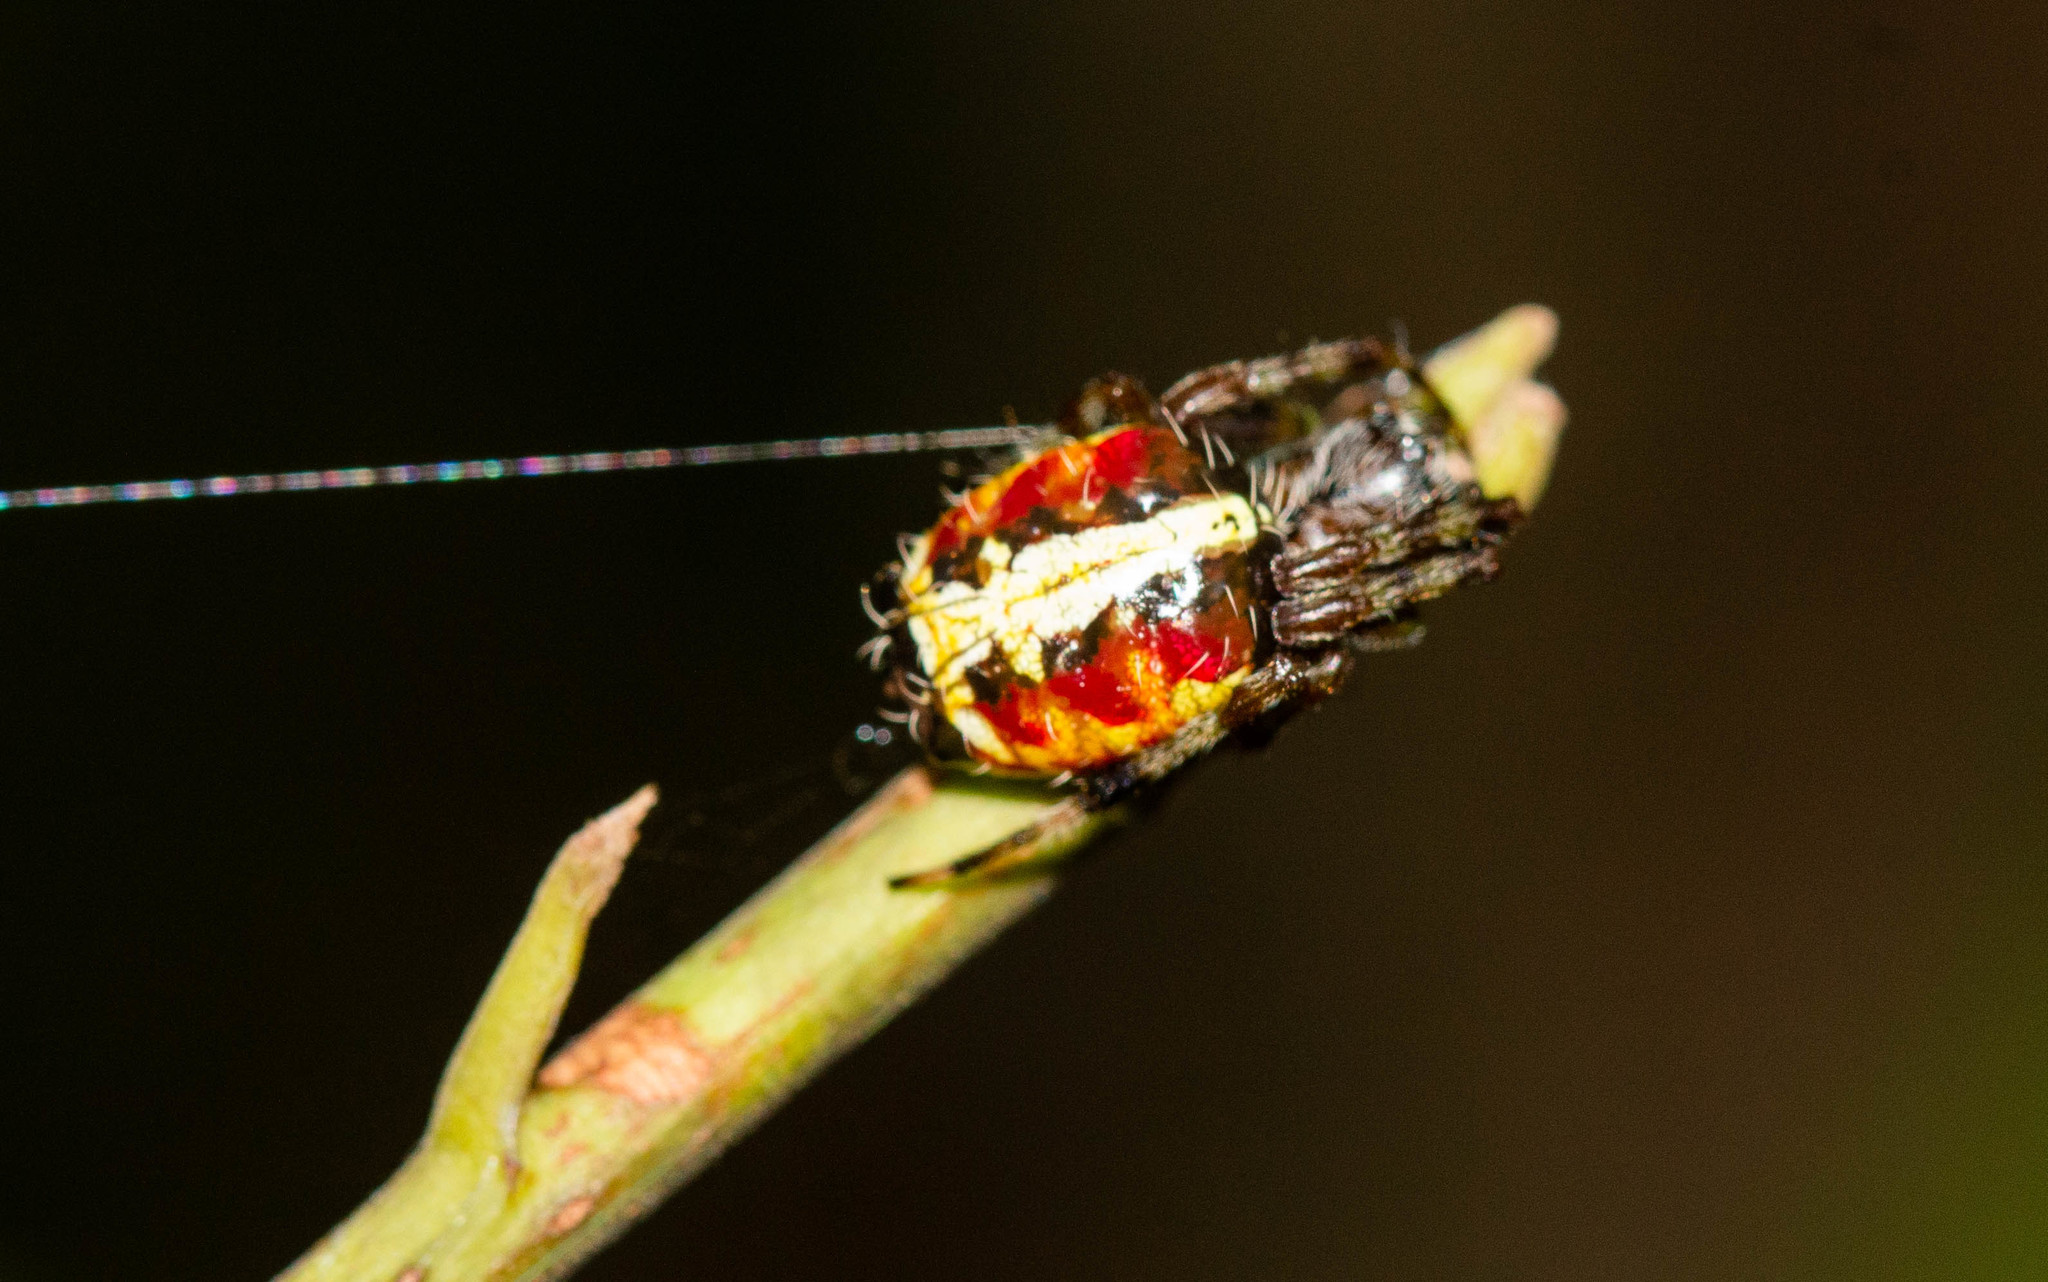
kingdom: Animalia
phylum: Arthropoda
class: Arachnida
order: Araneae
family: Araneidae
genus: Alpaida
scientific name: Alpaida truncata
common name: Orb weavers
